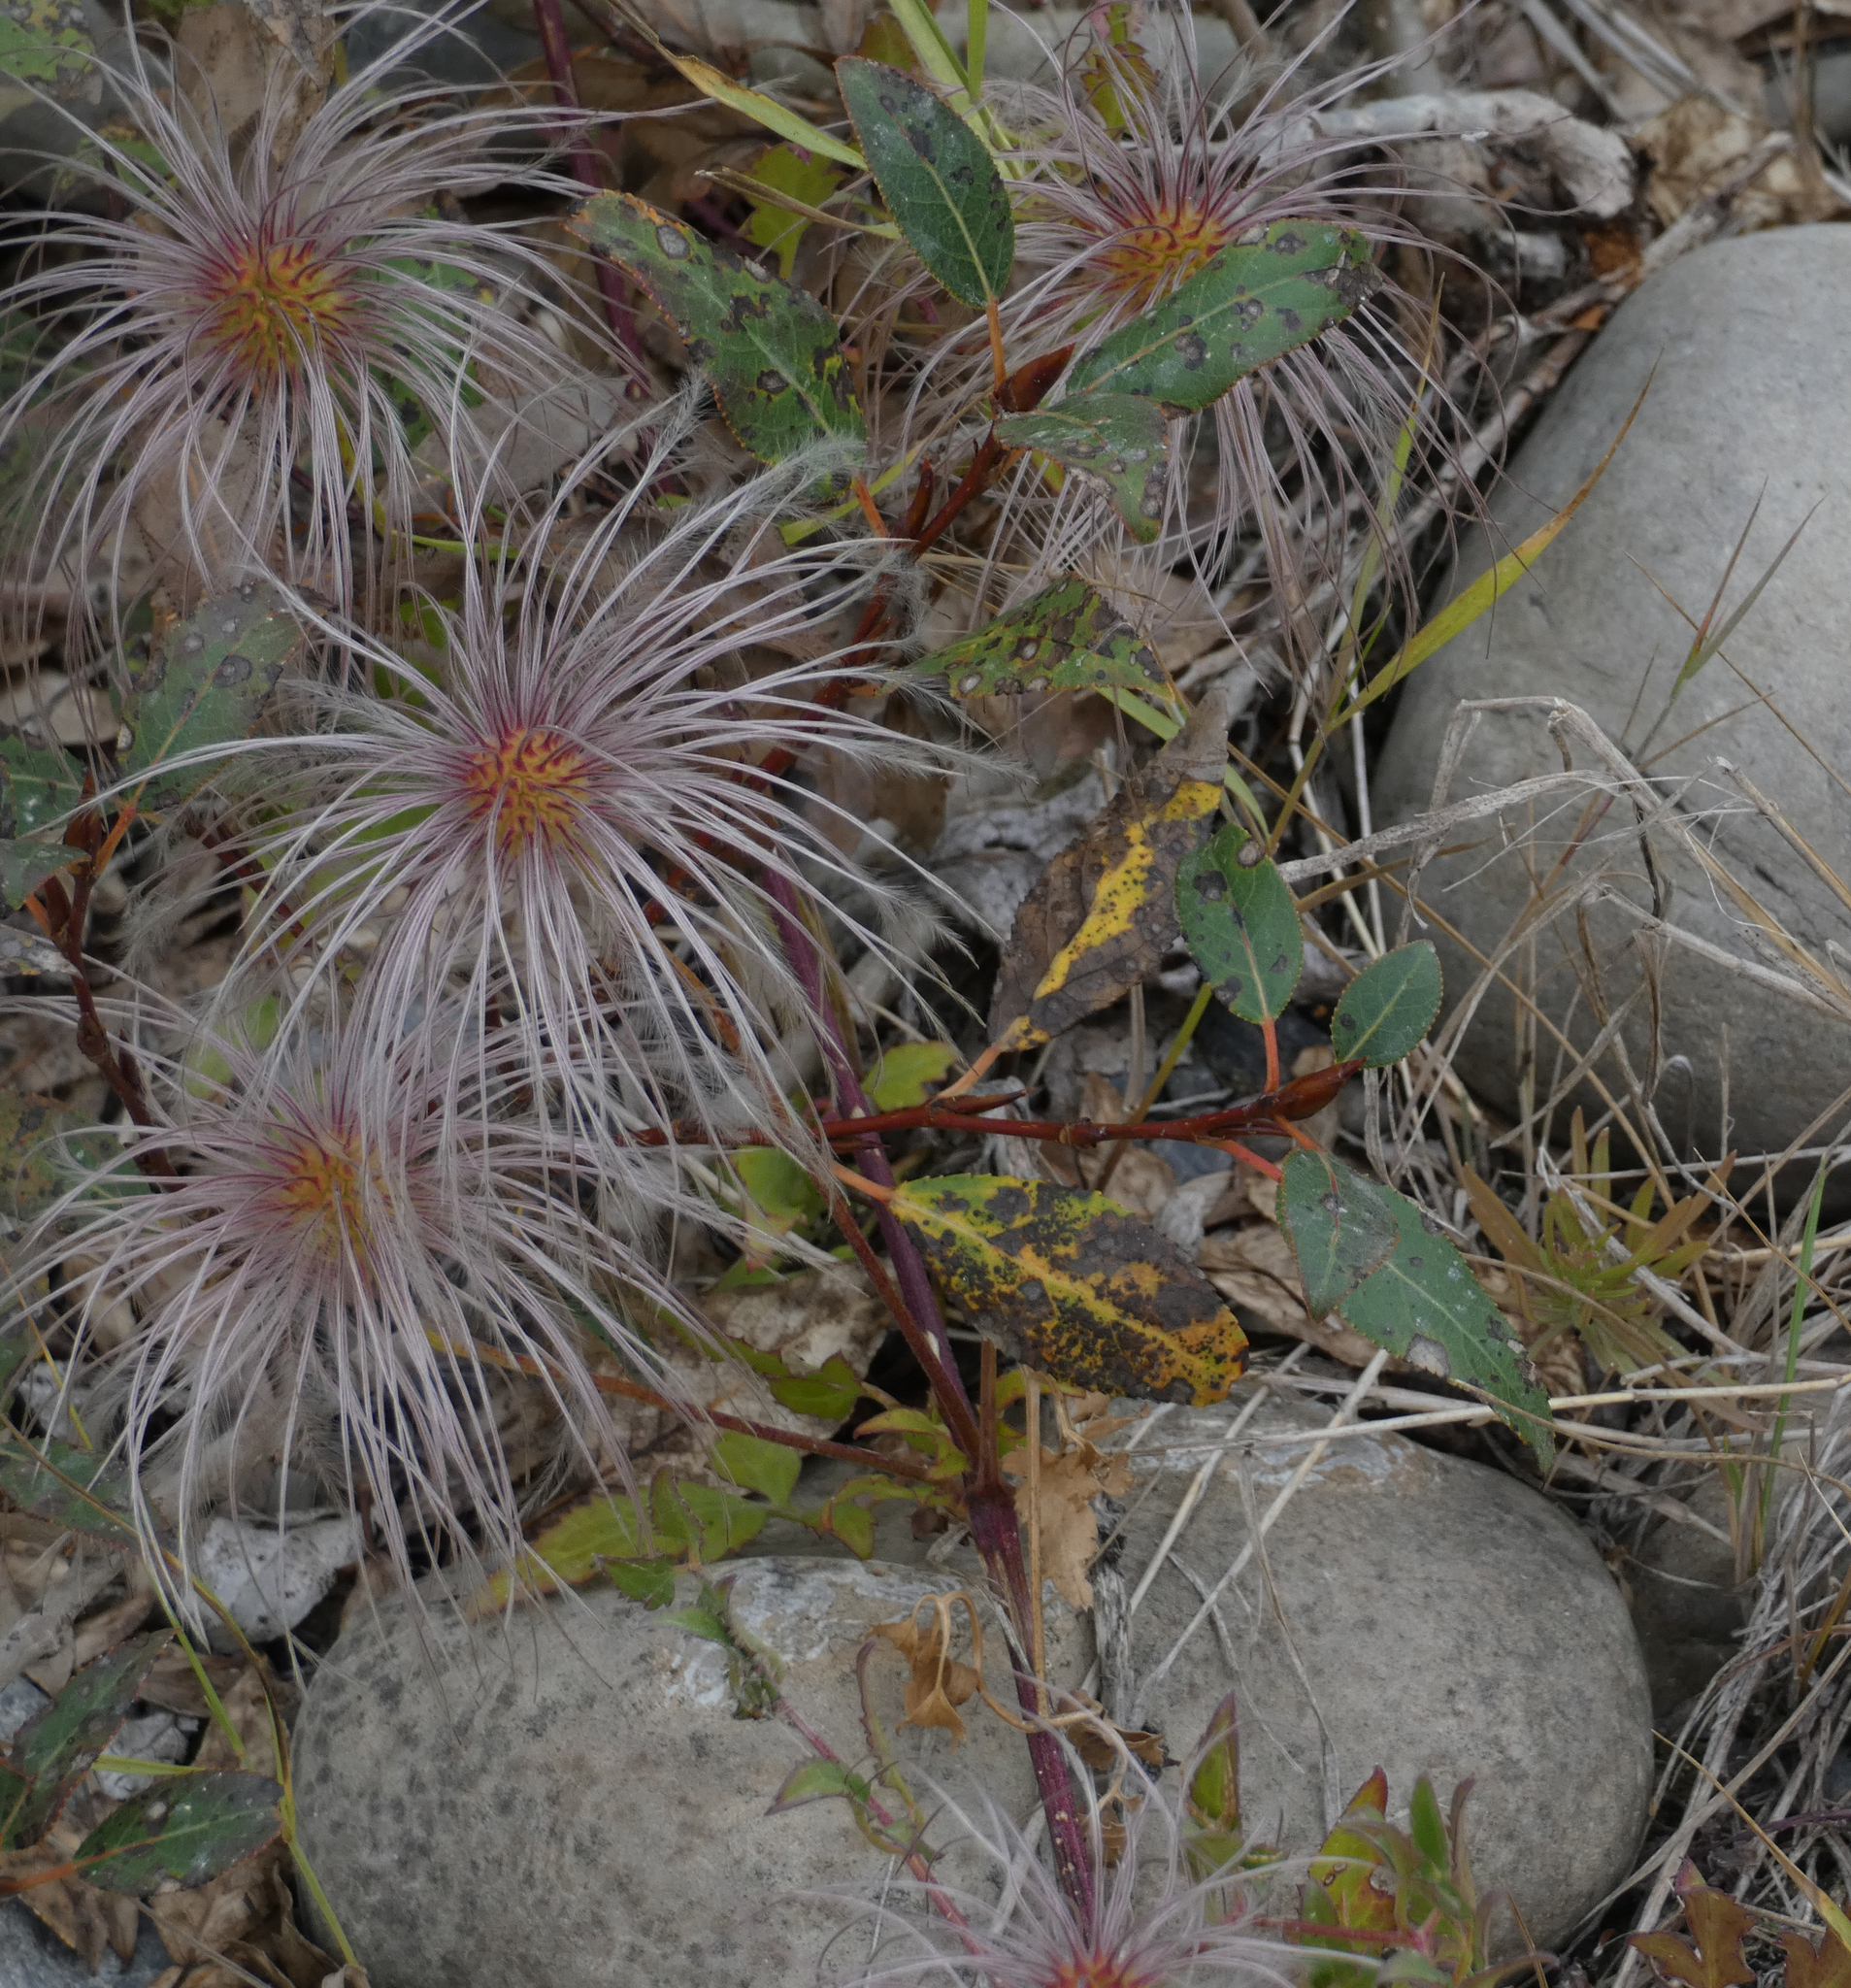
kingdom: Plantae
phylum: Tracheophyta
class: Magnoliopsida
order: Ranunculales
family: Ranunculaceae
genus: Clematis
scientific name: Clematis tangutica
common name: Orange-peel clematis
